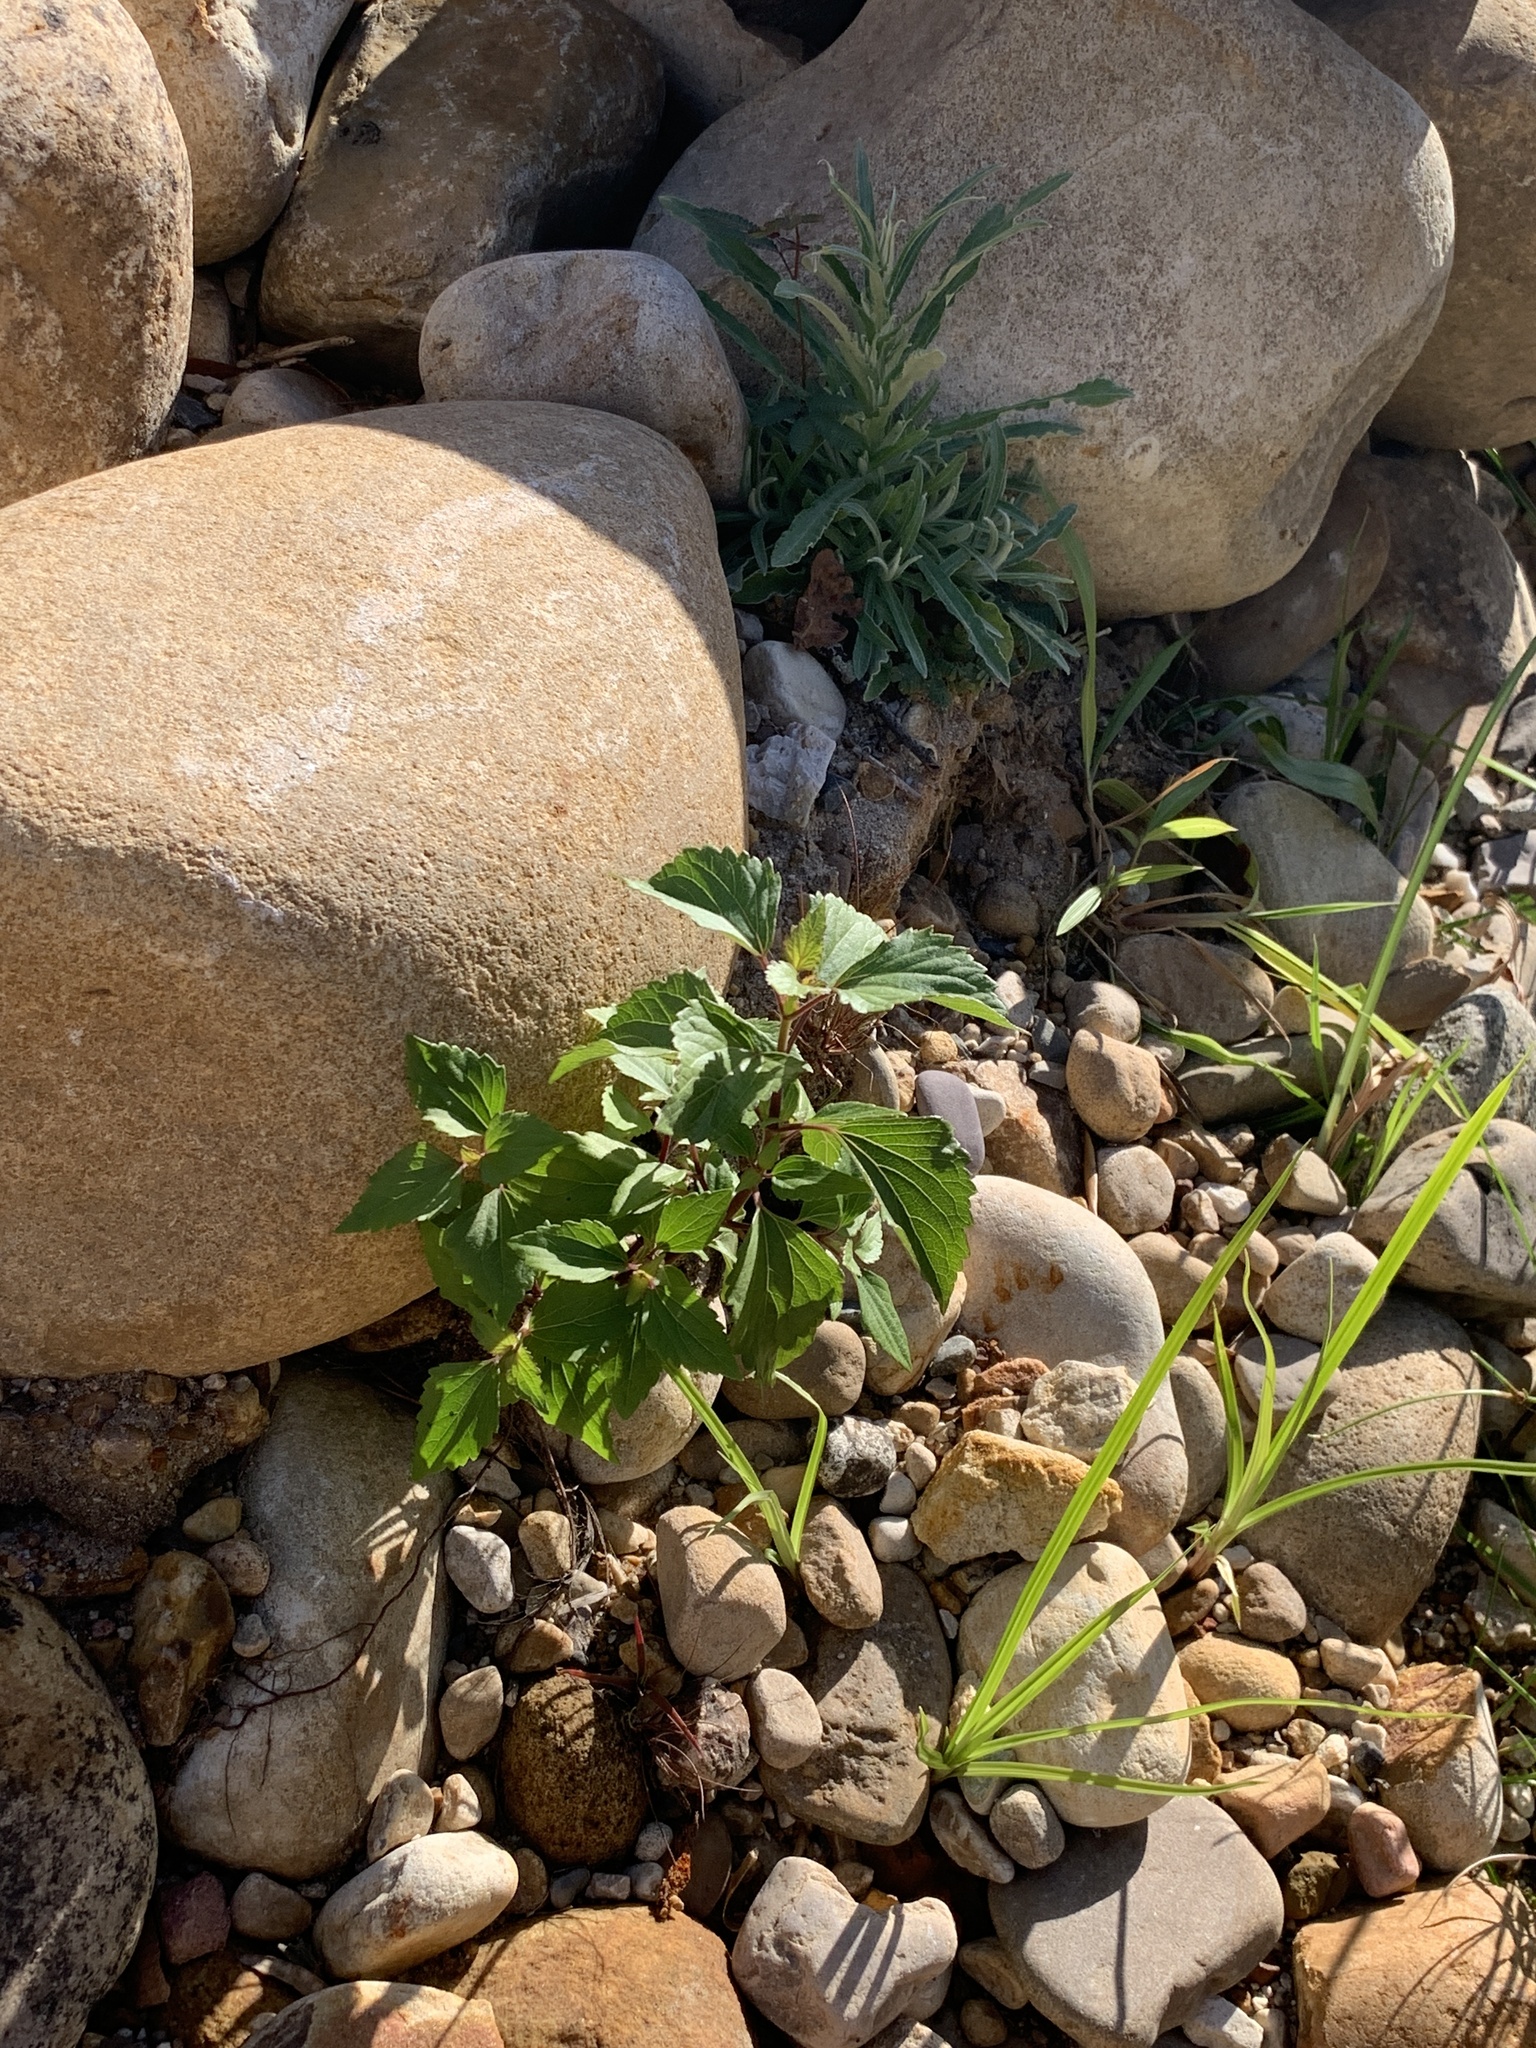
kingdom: Plantae
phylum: Tracheophyta
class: Magnoliopsida
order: Asterales
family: Asteraceae
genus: Ageratina
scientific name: Ageratina adenophora
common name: Sticky snakeroot
